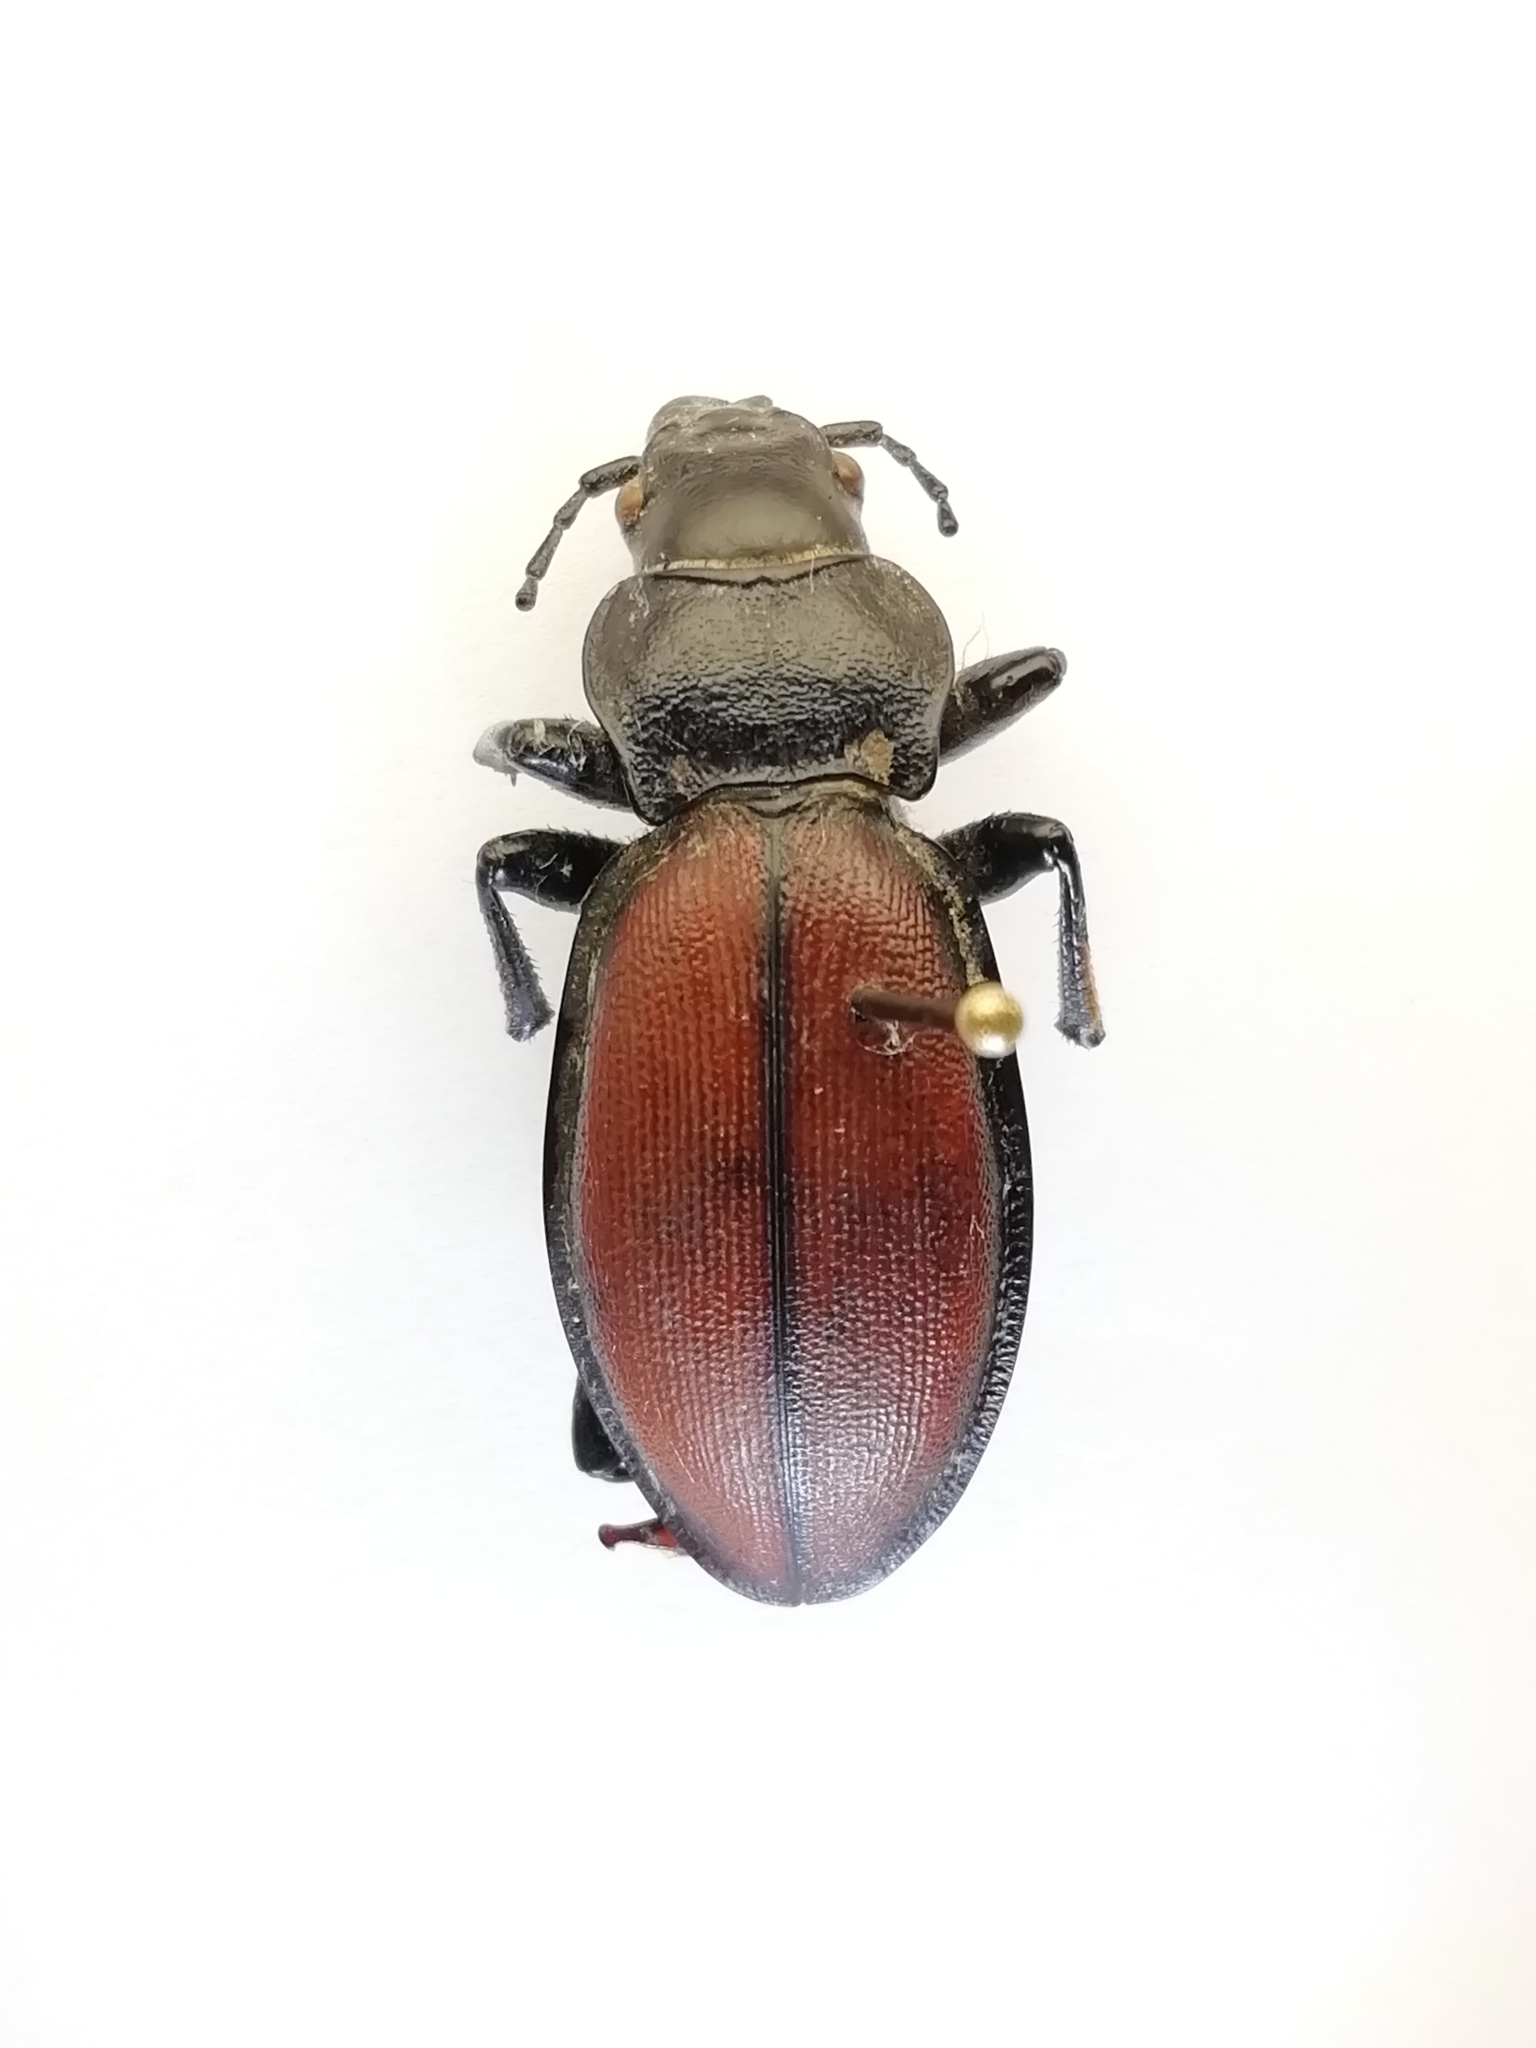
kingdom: Animalia
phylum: Arthropoda
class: Insecta
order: Coleoptera
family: Carabidae
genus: Carabus
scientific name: Carabus schoenherri
